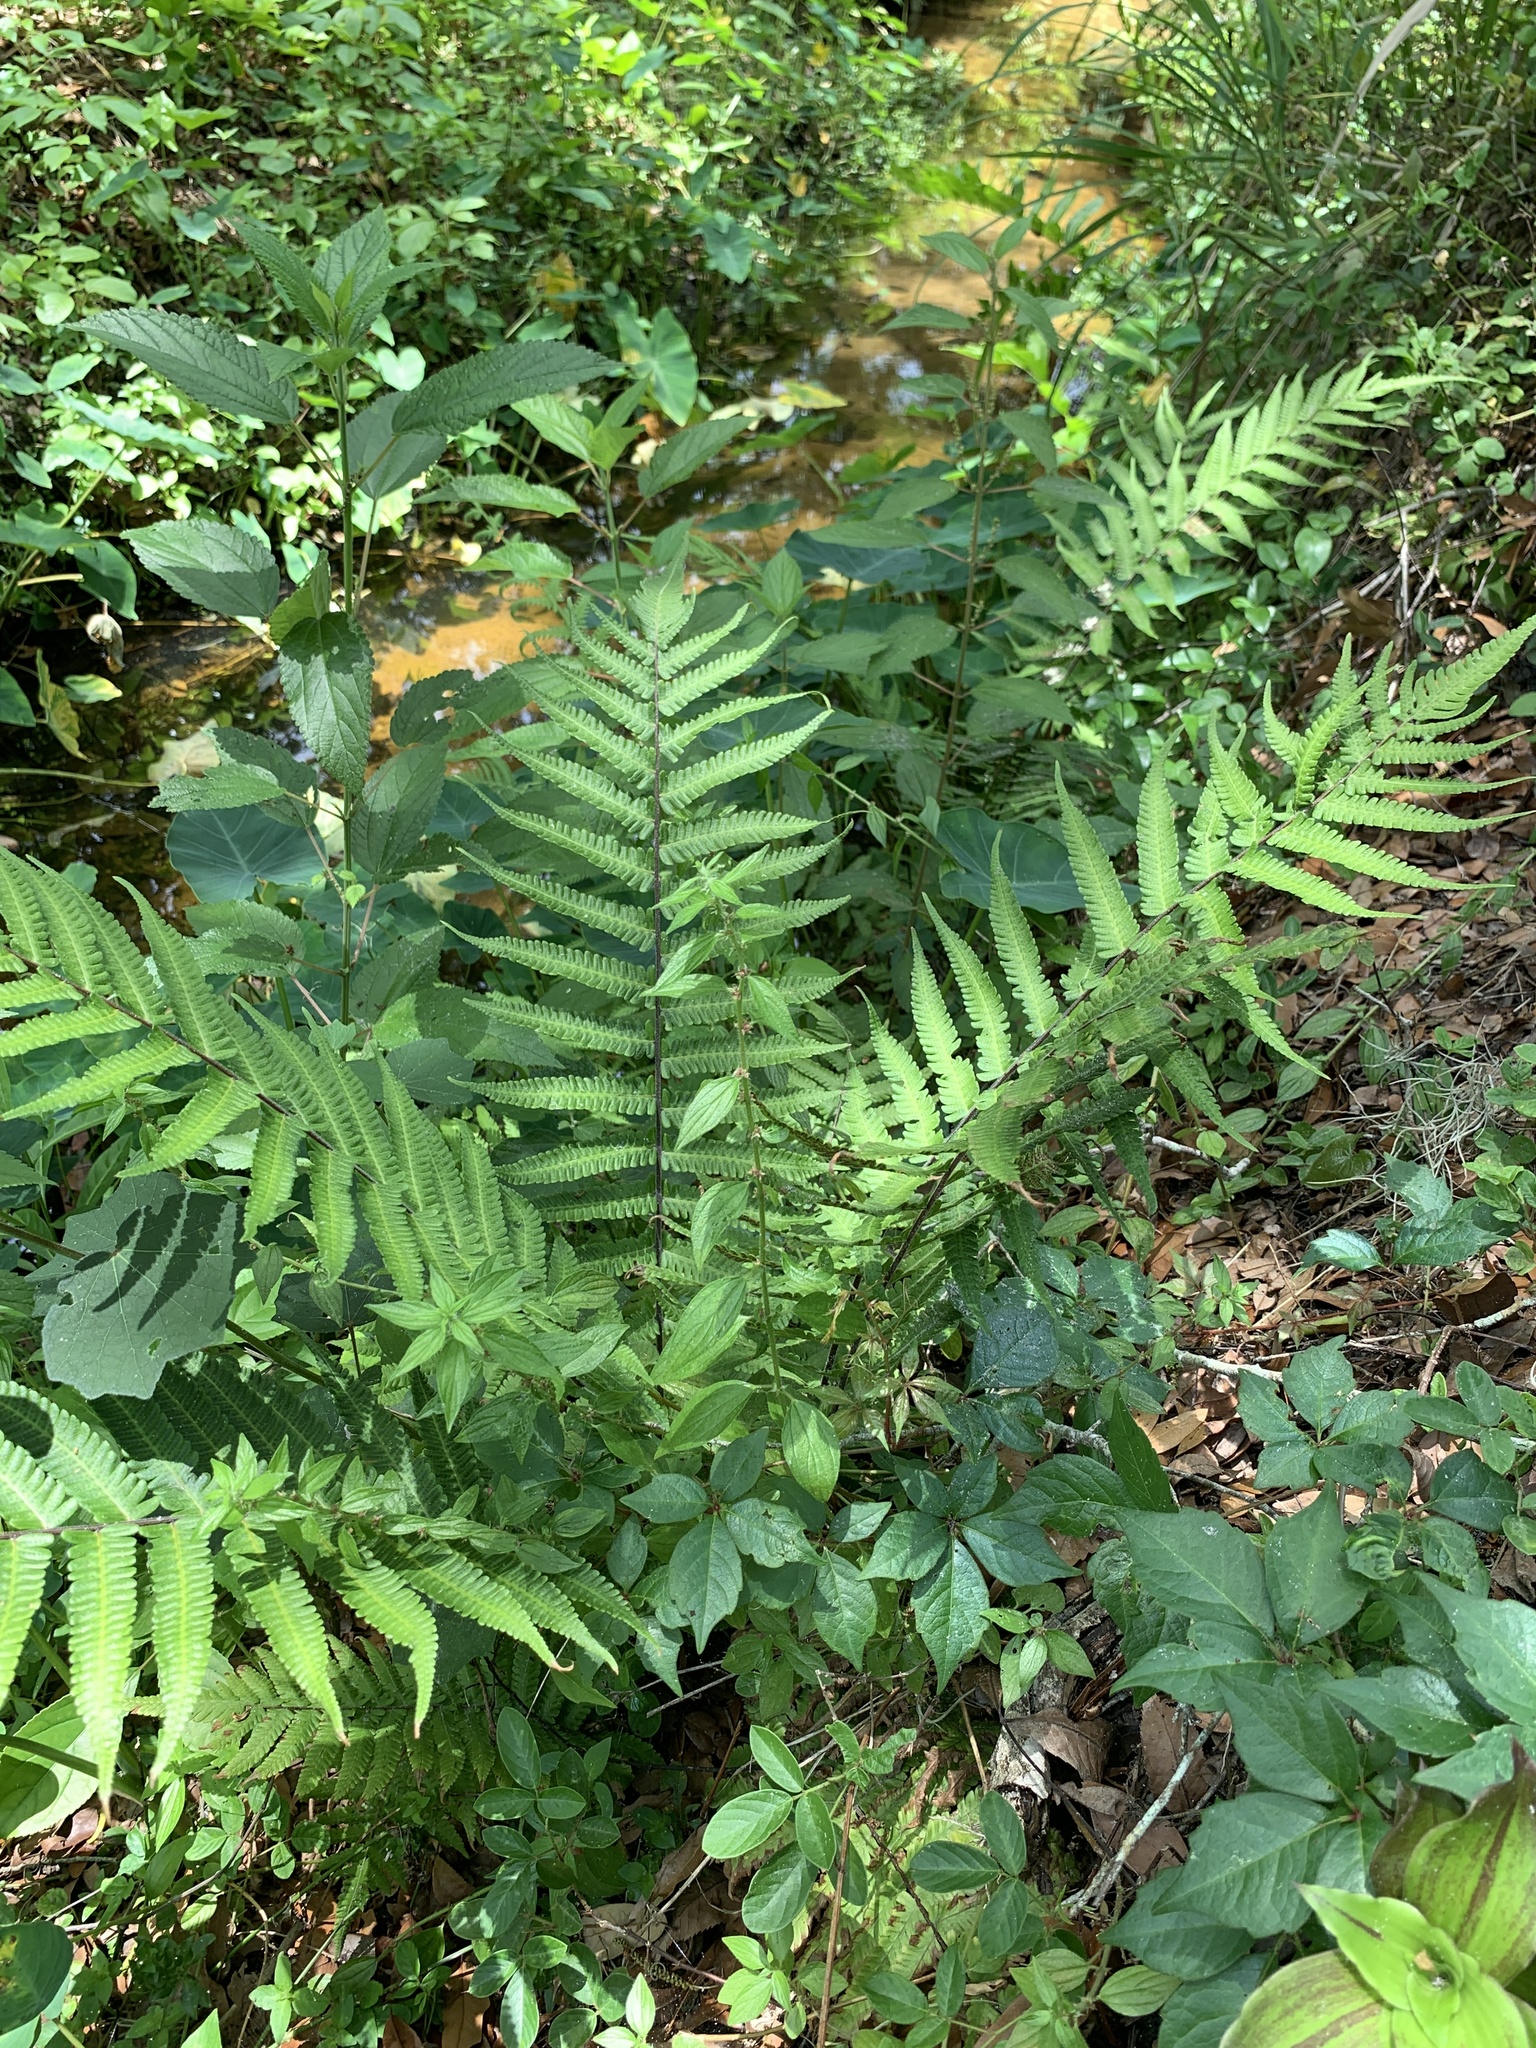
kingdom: Plantae
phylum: Tracheophyta
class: Polypodiopsida
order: Polypodiales
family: Thelypteridaceae
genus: Christella
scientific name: Christella dentata
